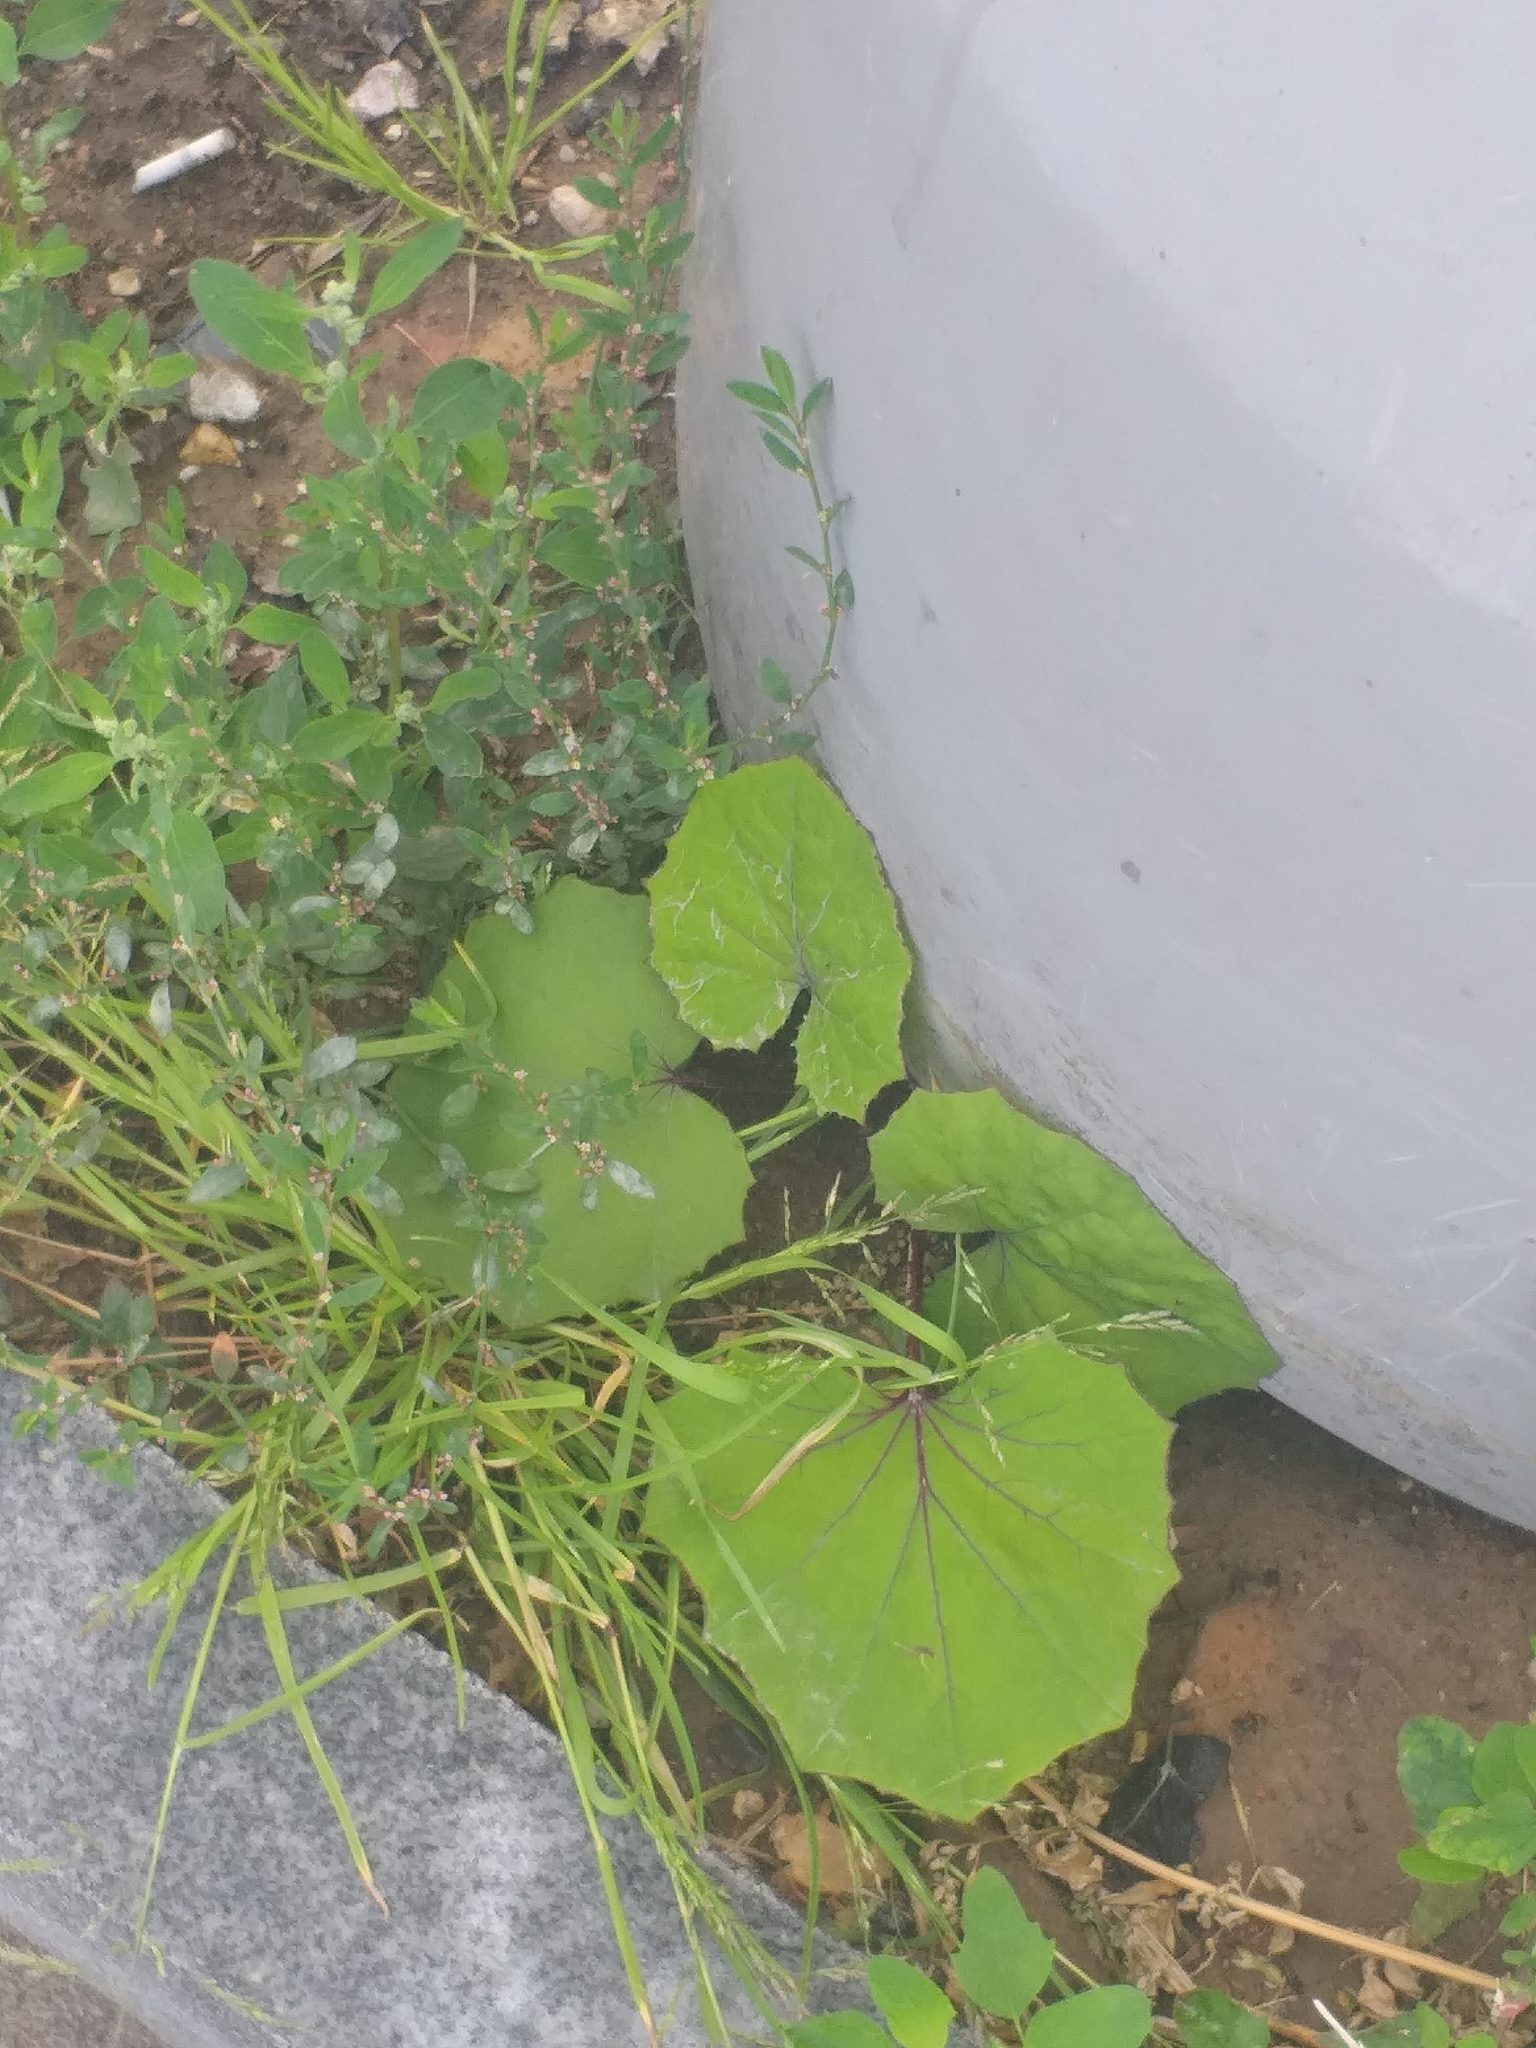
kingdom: Plantae
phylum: Tracheophyta
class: Magnoliopsida
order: Asterales
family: Asteraceae
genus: Tussilago
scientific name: Tussilago farfara
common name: Coltsfoot
